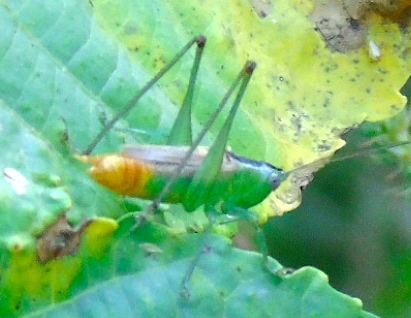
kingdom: Animalia
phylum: Arthropoda
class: Insecta
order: Orthoptera
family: Tettigoniidae
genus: Conocephalus
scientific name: Conocephalus
